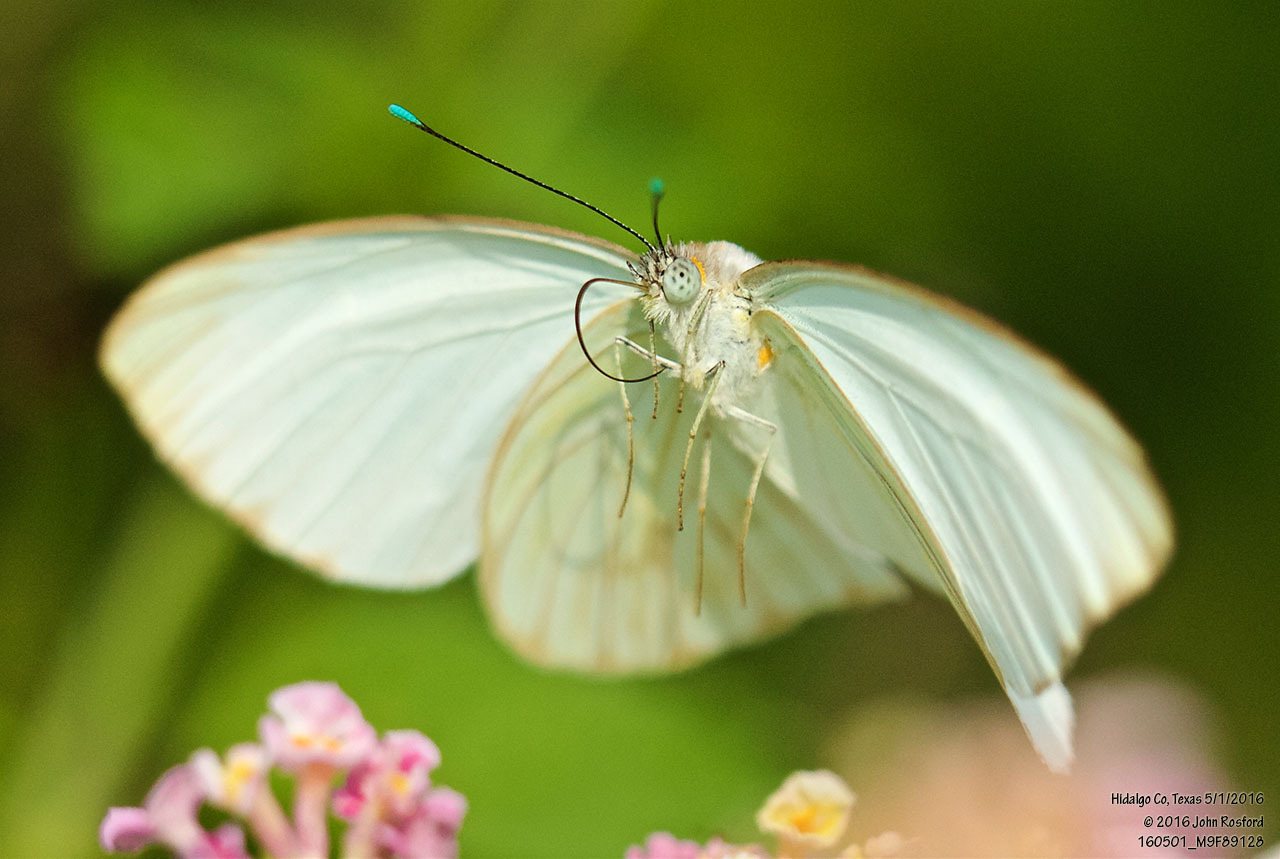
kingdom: Animalia
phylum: Arthropoda
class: Insecta
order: Lepidoptera
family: Pieridae
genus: Ascia
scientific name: Ascia monuste
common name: Great southern white
